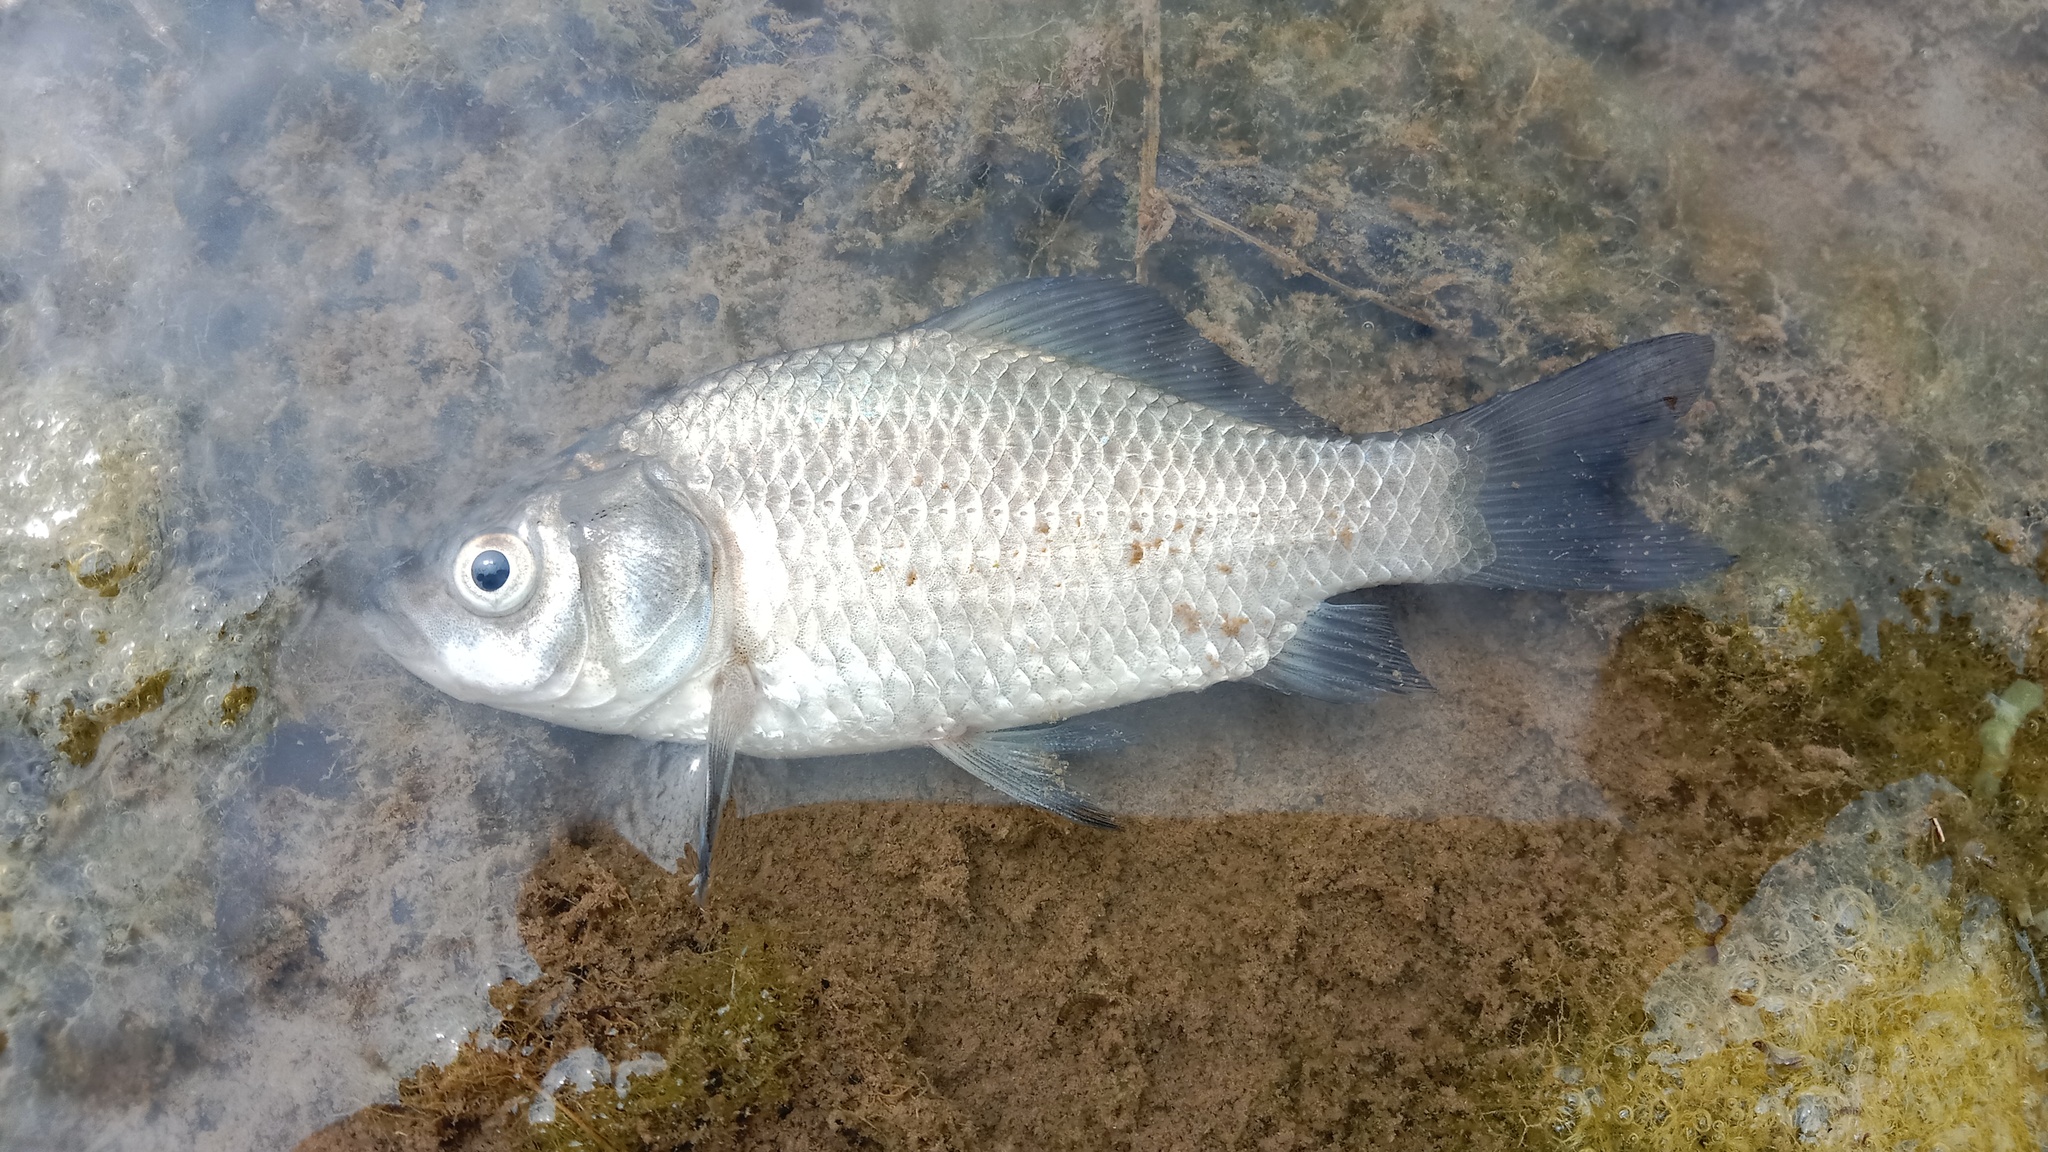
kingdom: Animalia
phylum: Chordata
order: Cypriniformes
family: Cyprinidae
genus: Carassius
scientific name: Carassius gibelio
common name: Prussian carp
